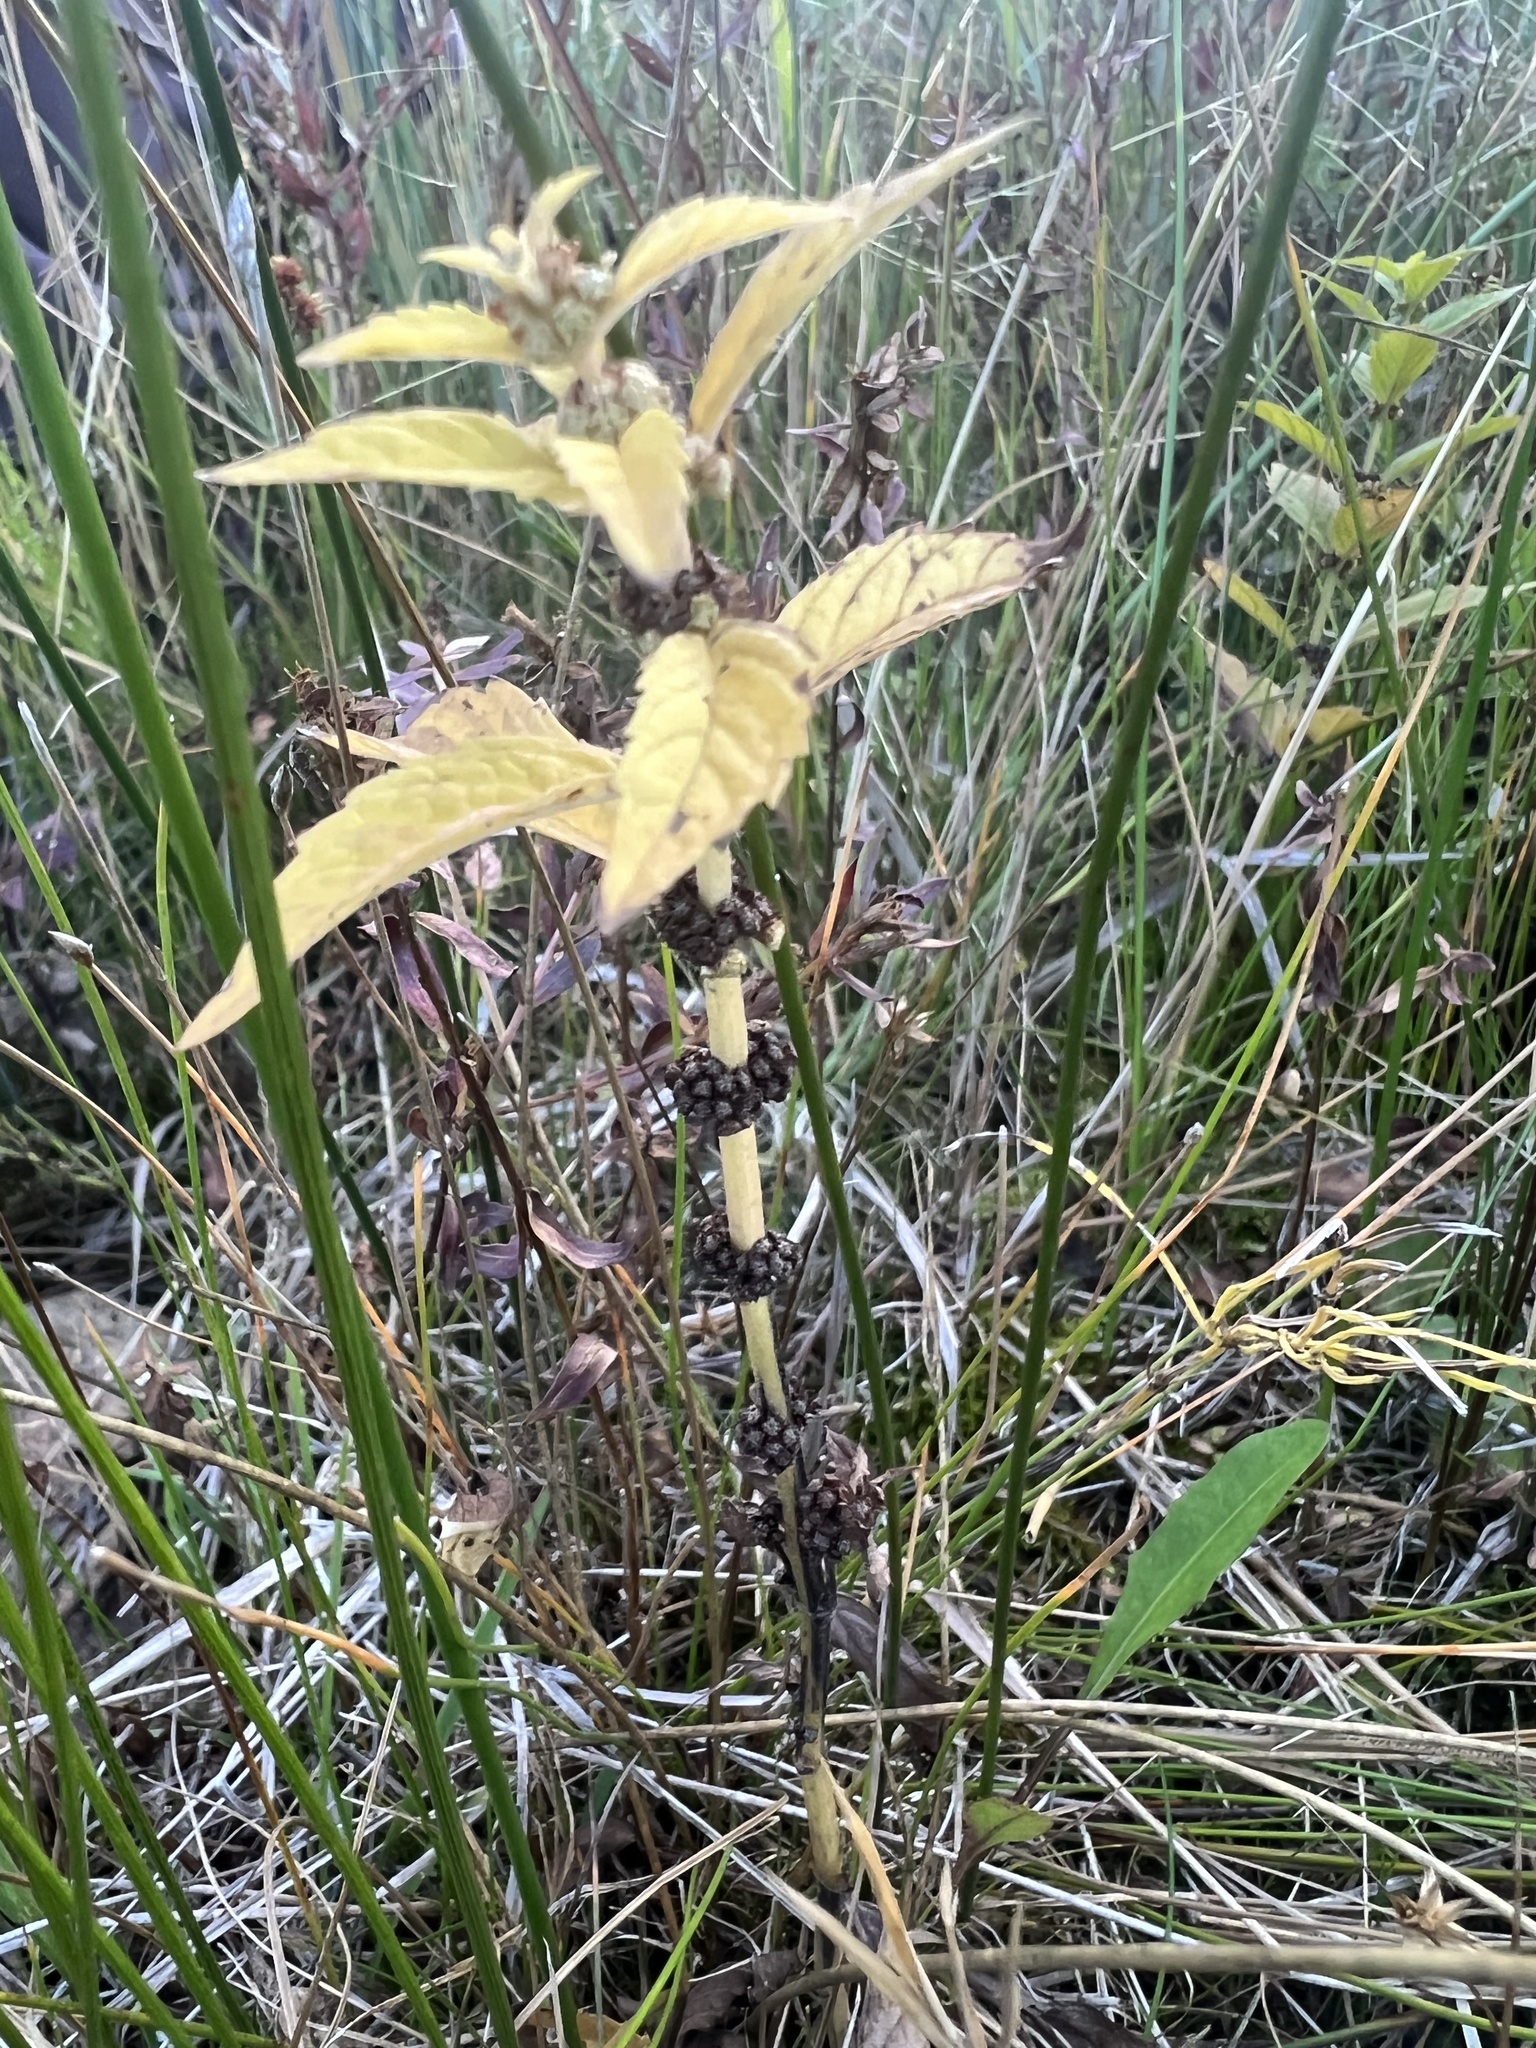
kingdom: Plantae
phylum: Tracheophyta
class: Magnoliopsida
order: Lamiales
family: Lamiaceae
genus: Lycopus
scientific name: Lycopus americanus
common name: American bugleweed
